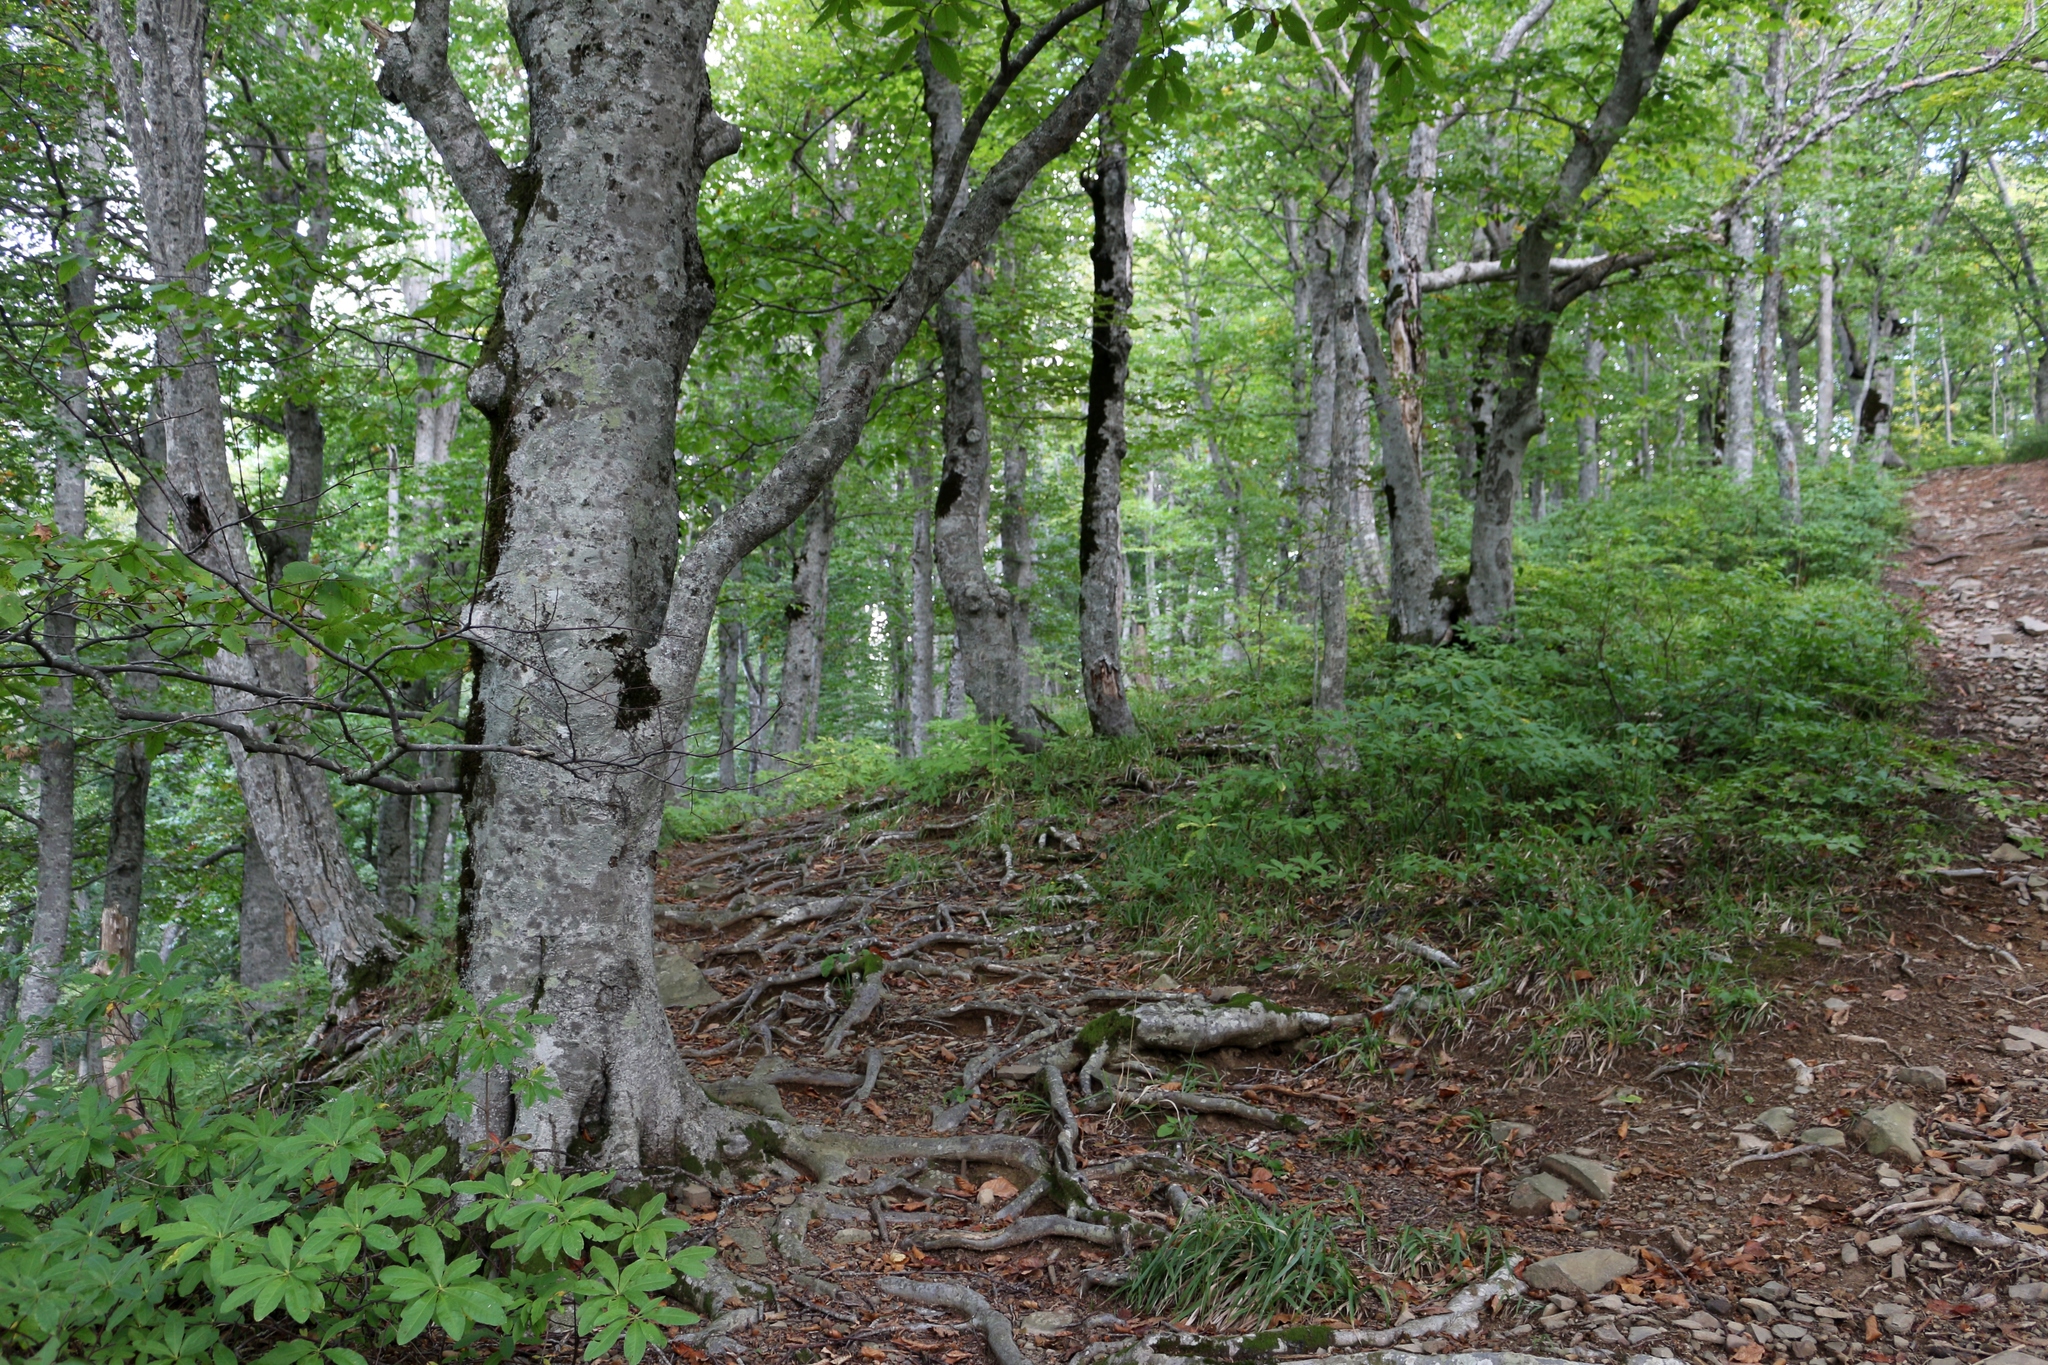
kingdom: Plantae
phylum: Tracheophyta
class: Magnoliopsida
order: Fagales
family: Fagaceae
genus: Fagus
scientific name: Fagus orientalis
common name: Oriental beech
